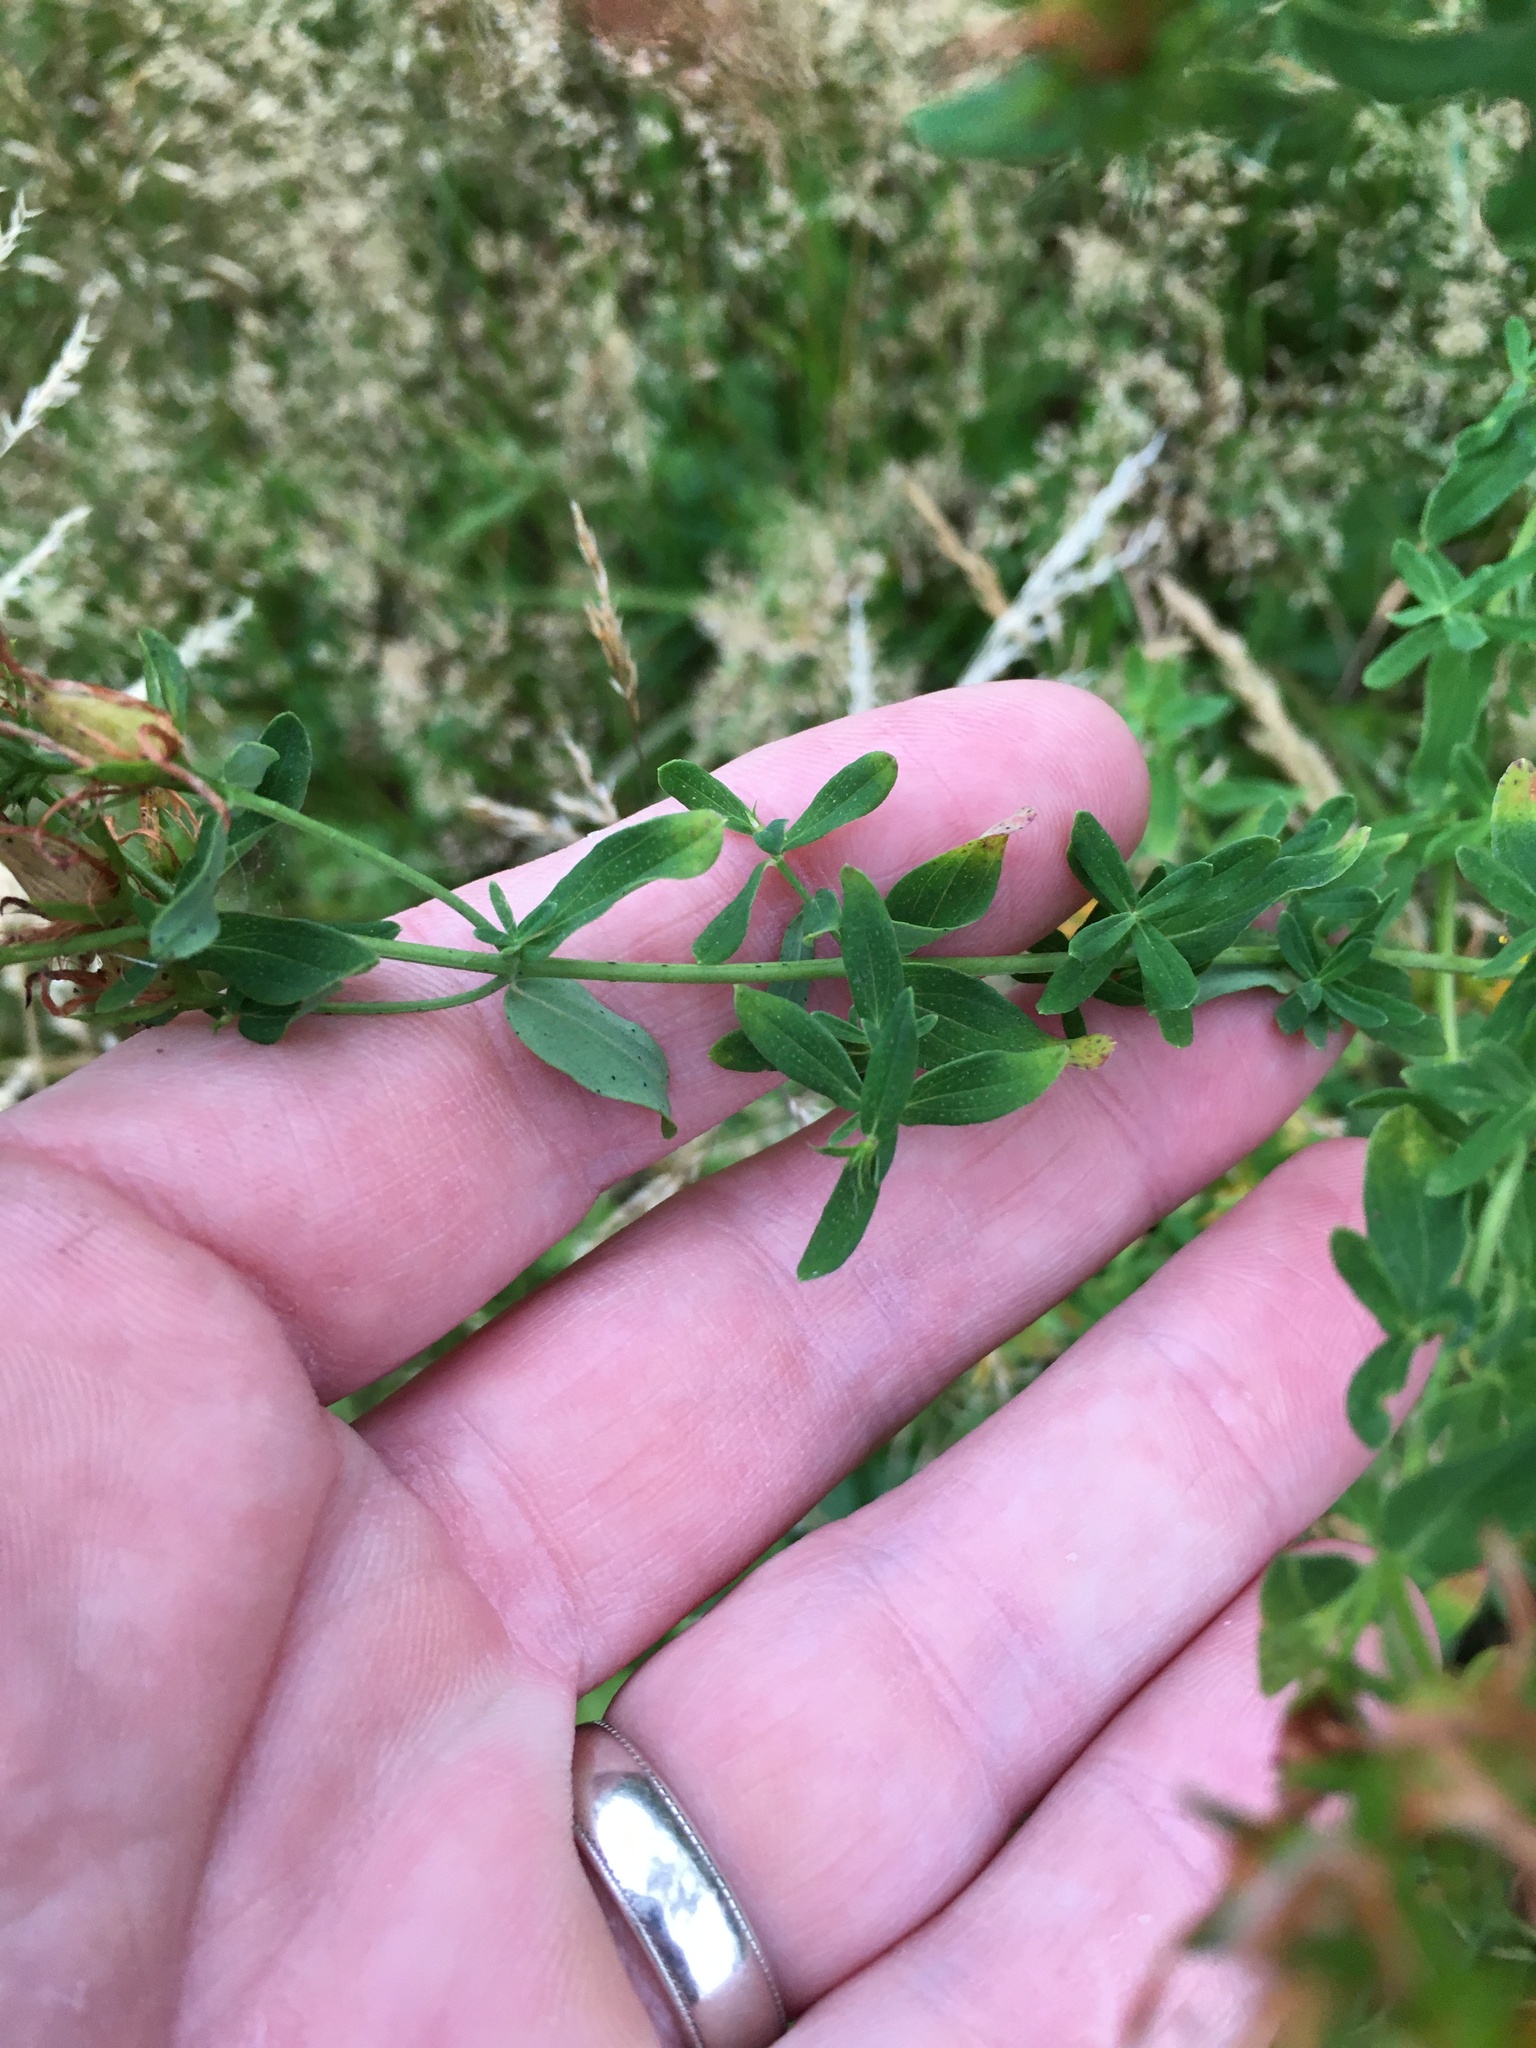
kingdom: Plantae
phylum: Tracheophyta
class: Magnoliopsida
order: Malpighiales
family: Hypericaceae
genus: Hypericum
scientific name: Hypericum perforatum
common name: Common st. johnswort
